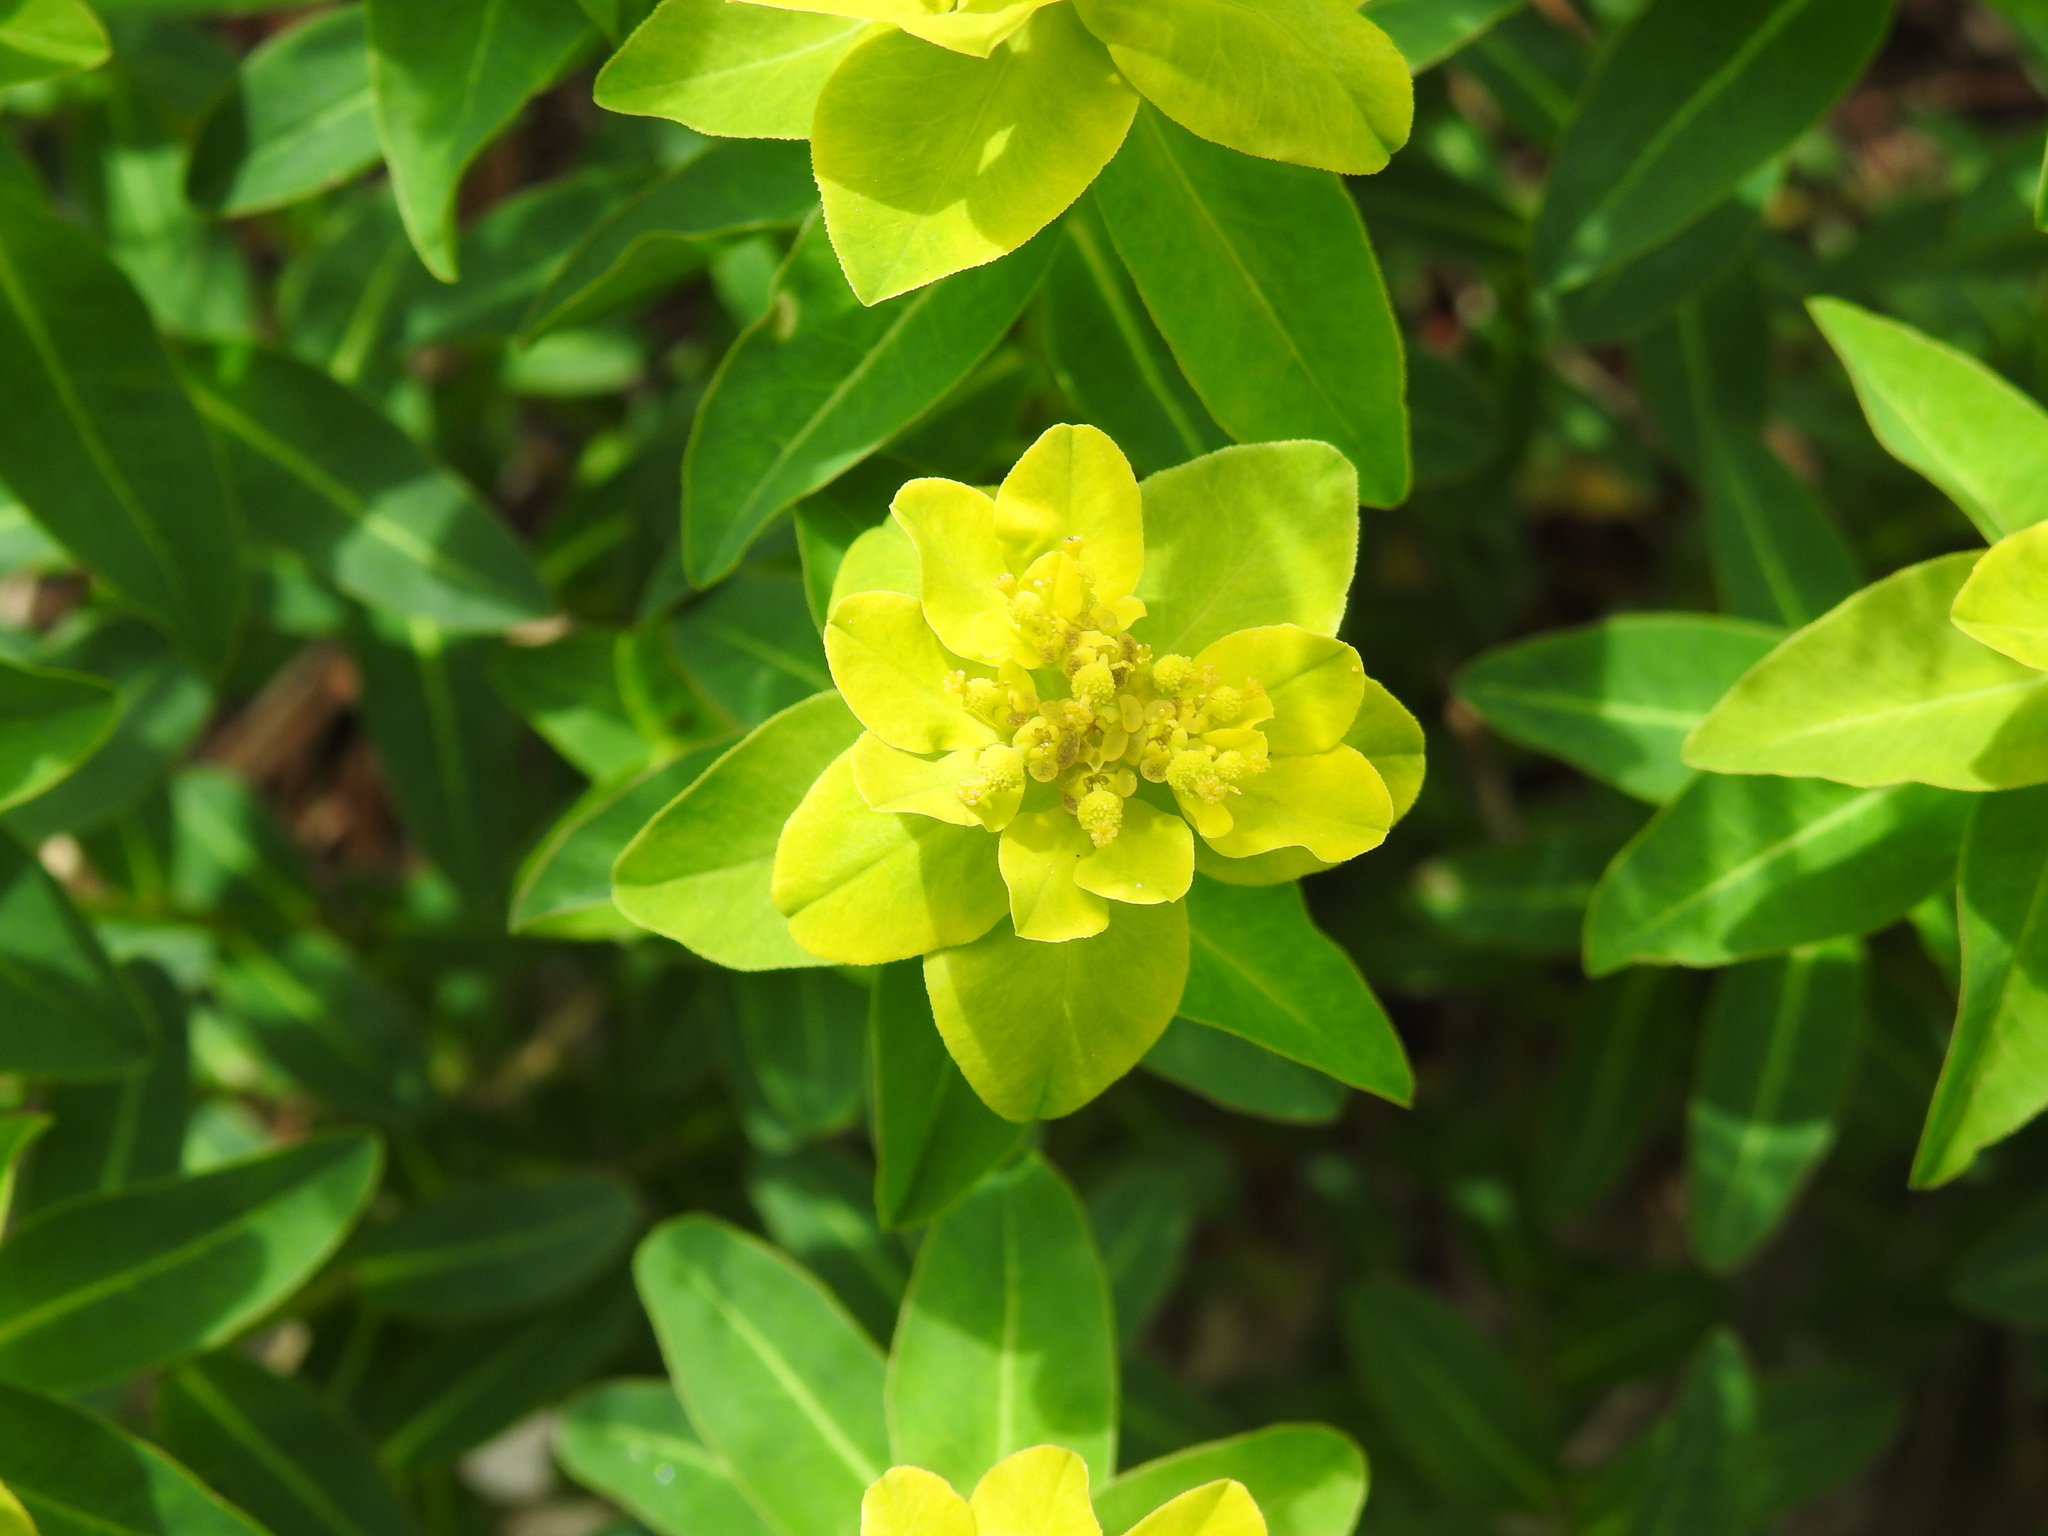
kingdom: Plantae
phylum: Tracheophyta
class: Magnoliopsida
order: Malpighiales
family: Euphorbiaceae
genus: Euphorbia
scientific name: Euphorbia hyberna
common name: Irish spurge
